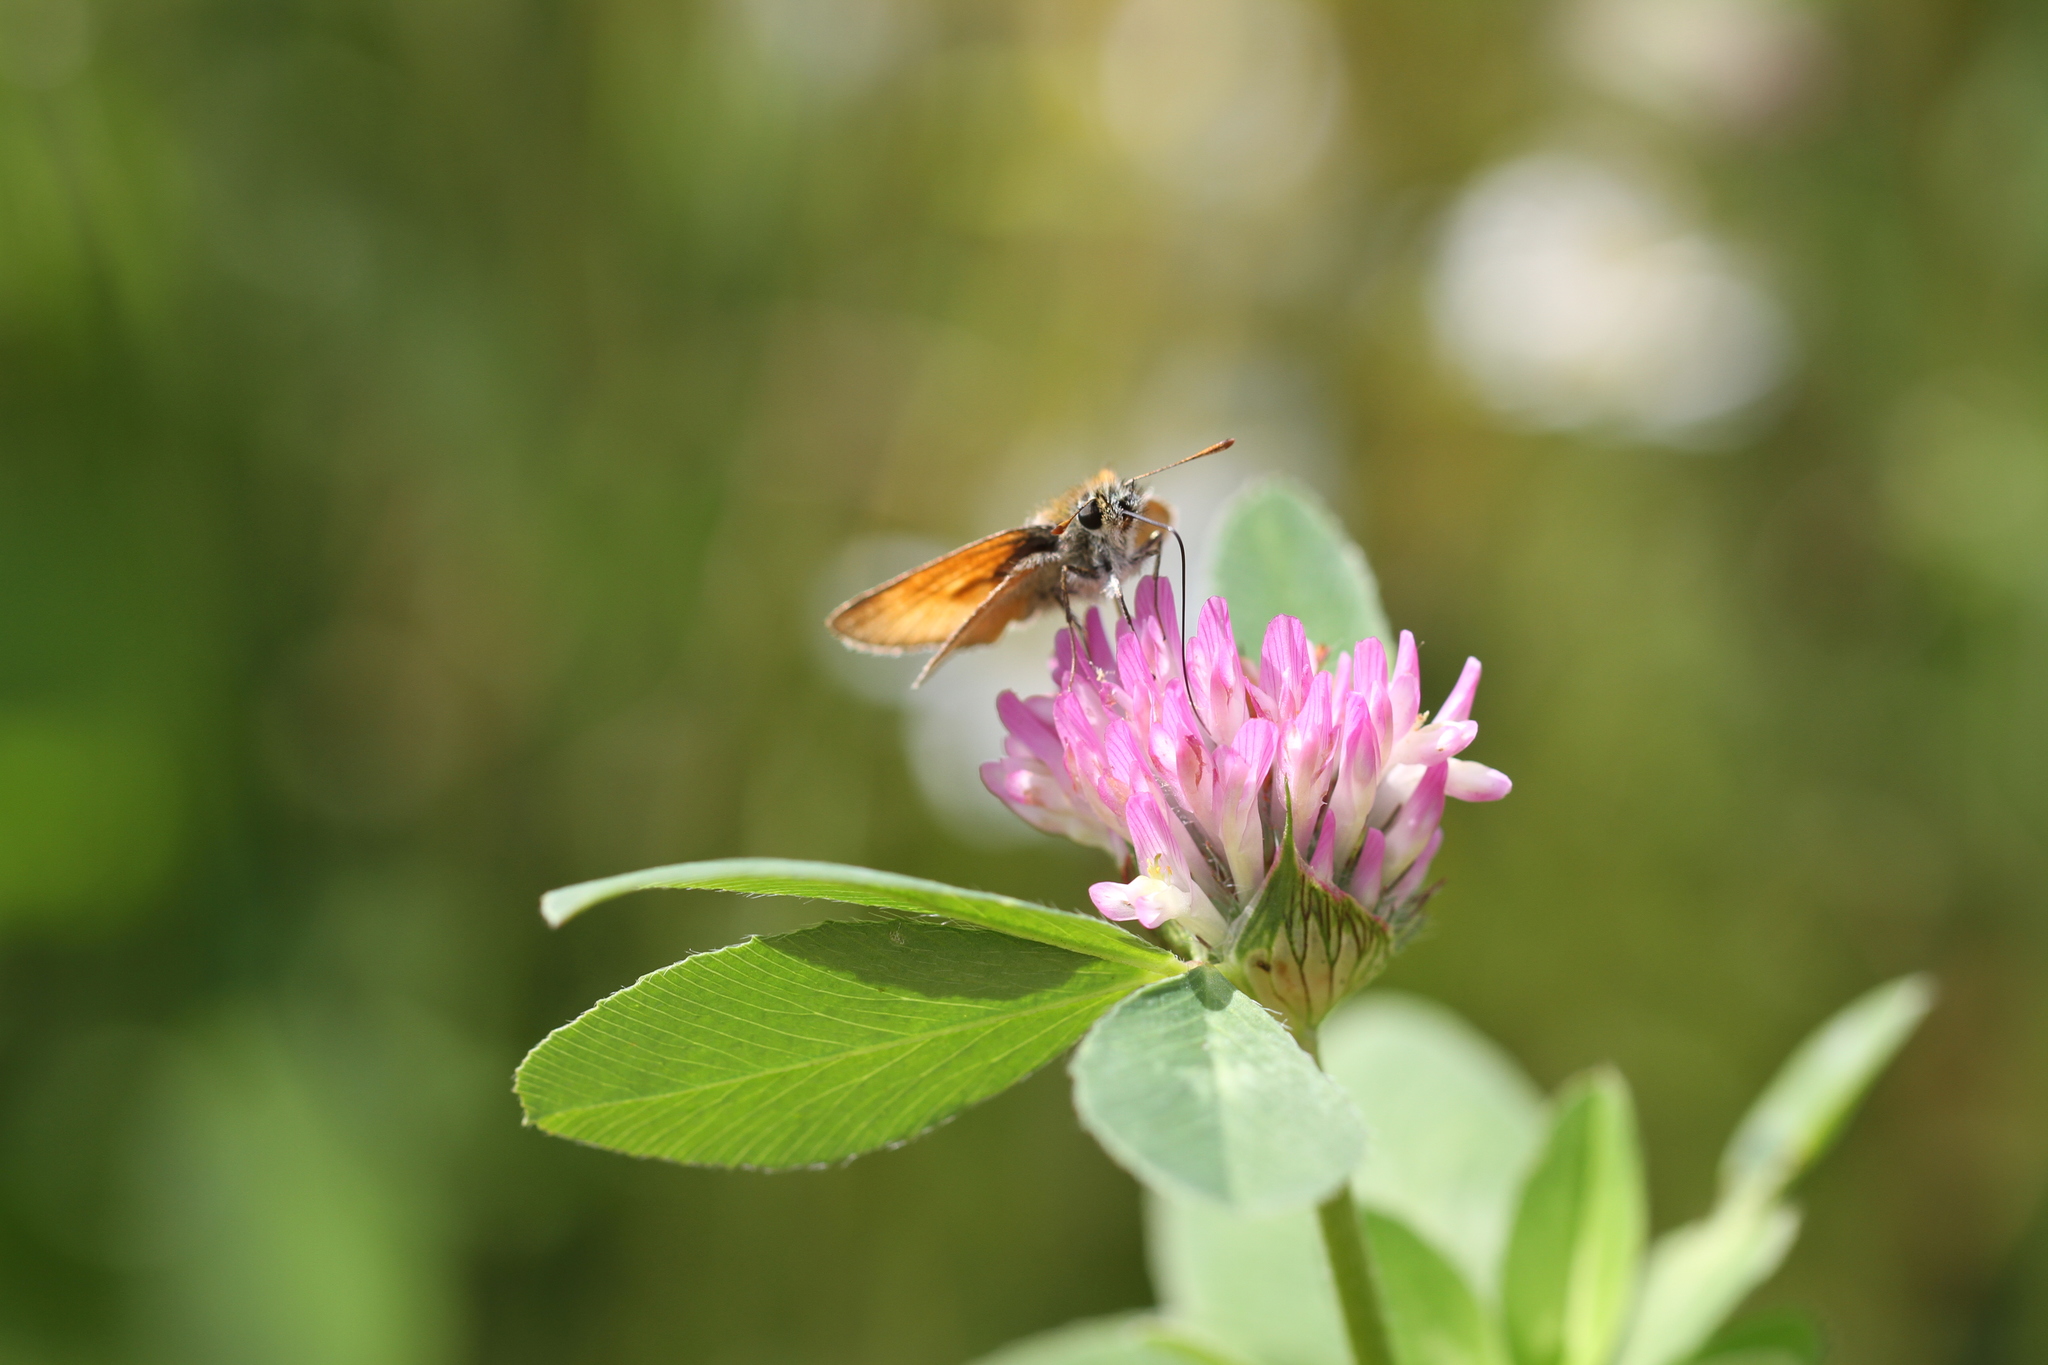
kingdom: Animalia
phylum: Arthropoda
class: Insecta
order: Lepidoptera
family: Hesperiidae
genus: Thymelicus
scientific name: Thymelicus sylvestris
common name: Small skipper
